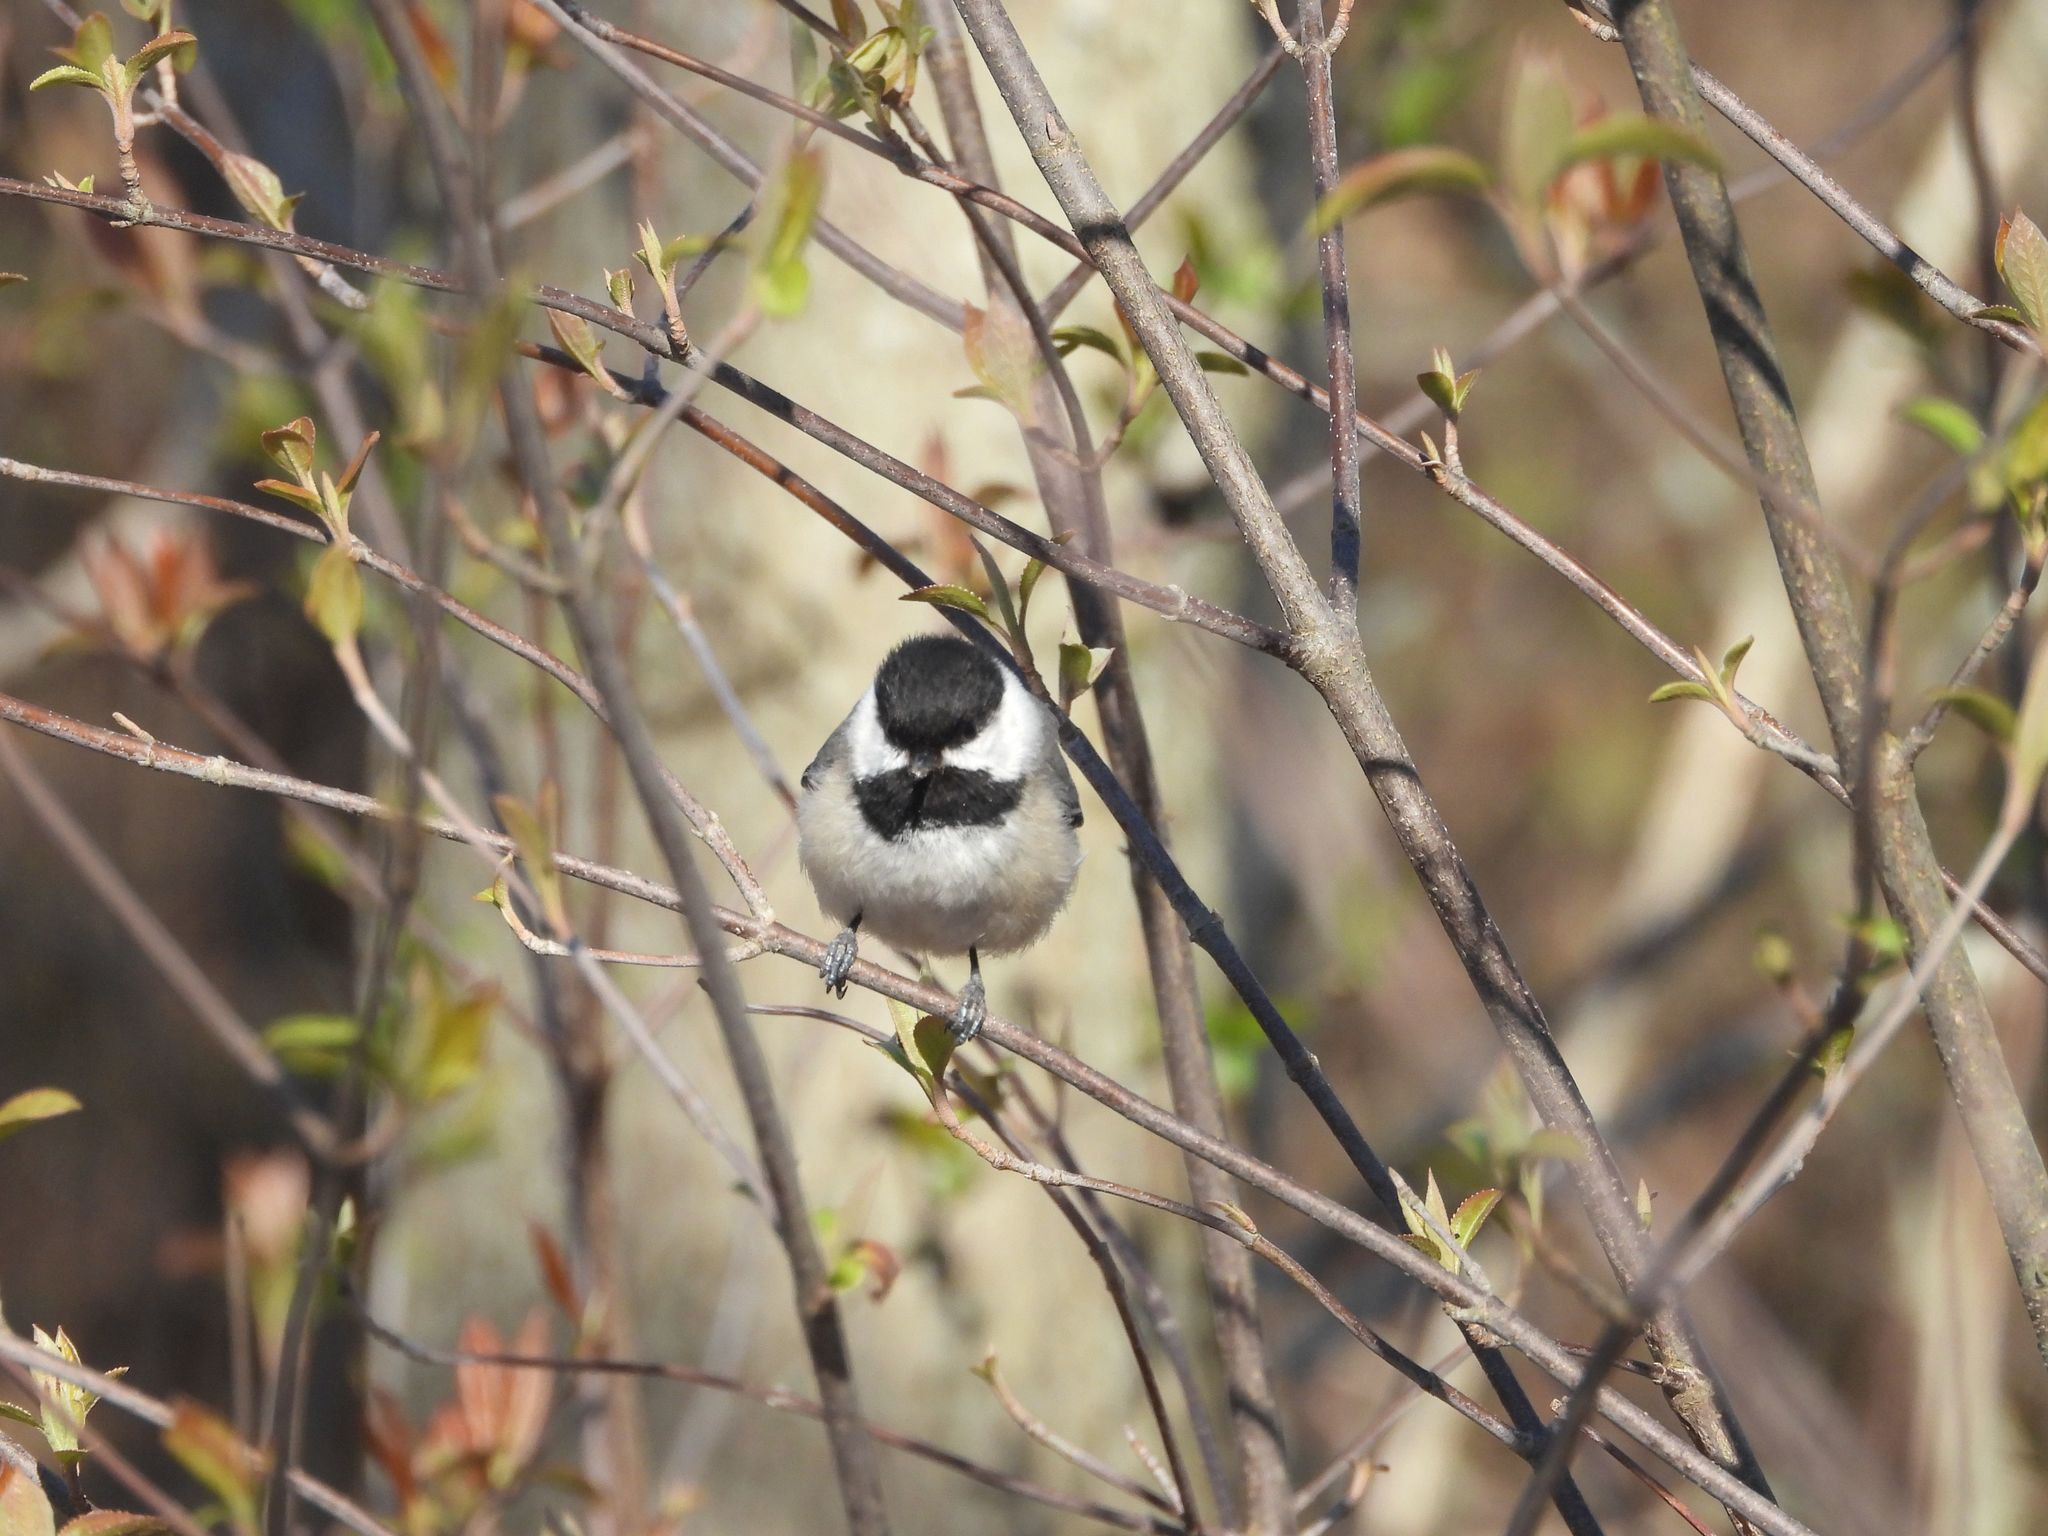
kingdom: Animalia
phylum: Chordata
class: Aves
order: Passeriformes
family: Paridae
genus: Poecile
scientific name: Poecile atricapillus
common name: Black-capped chickadee
